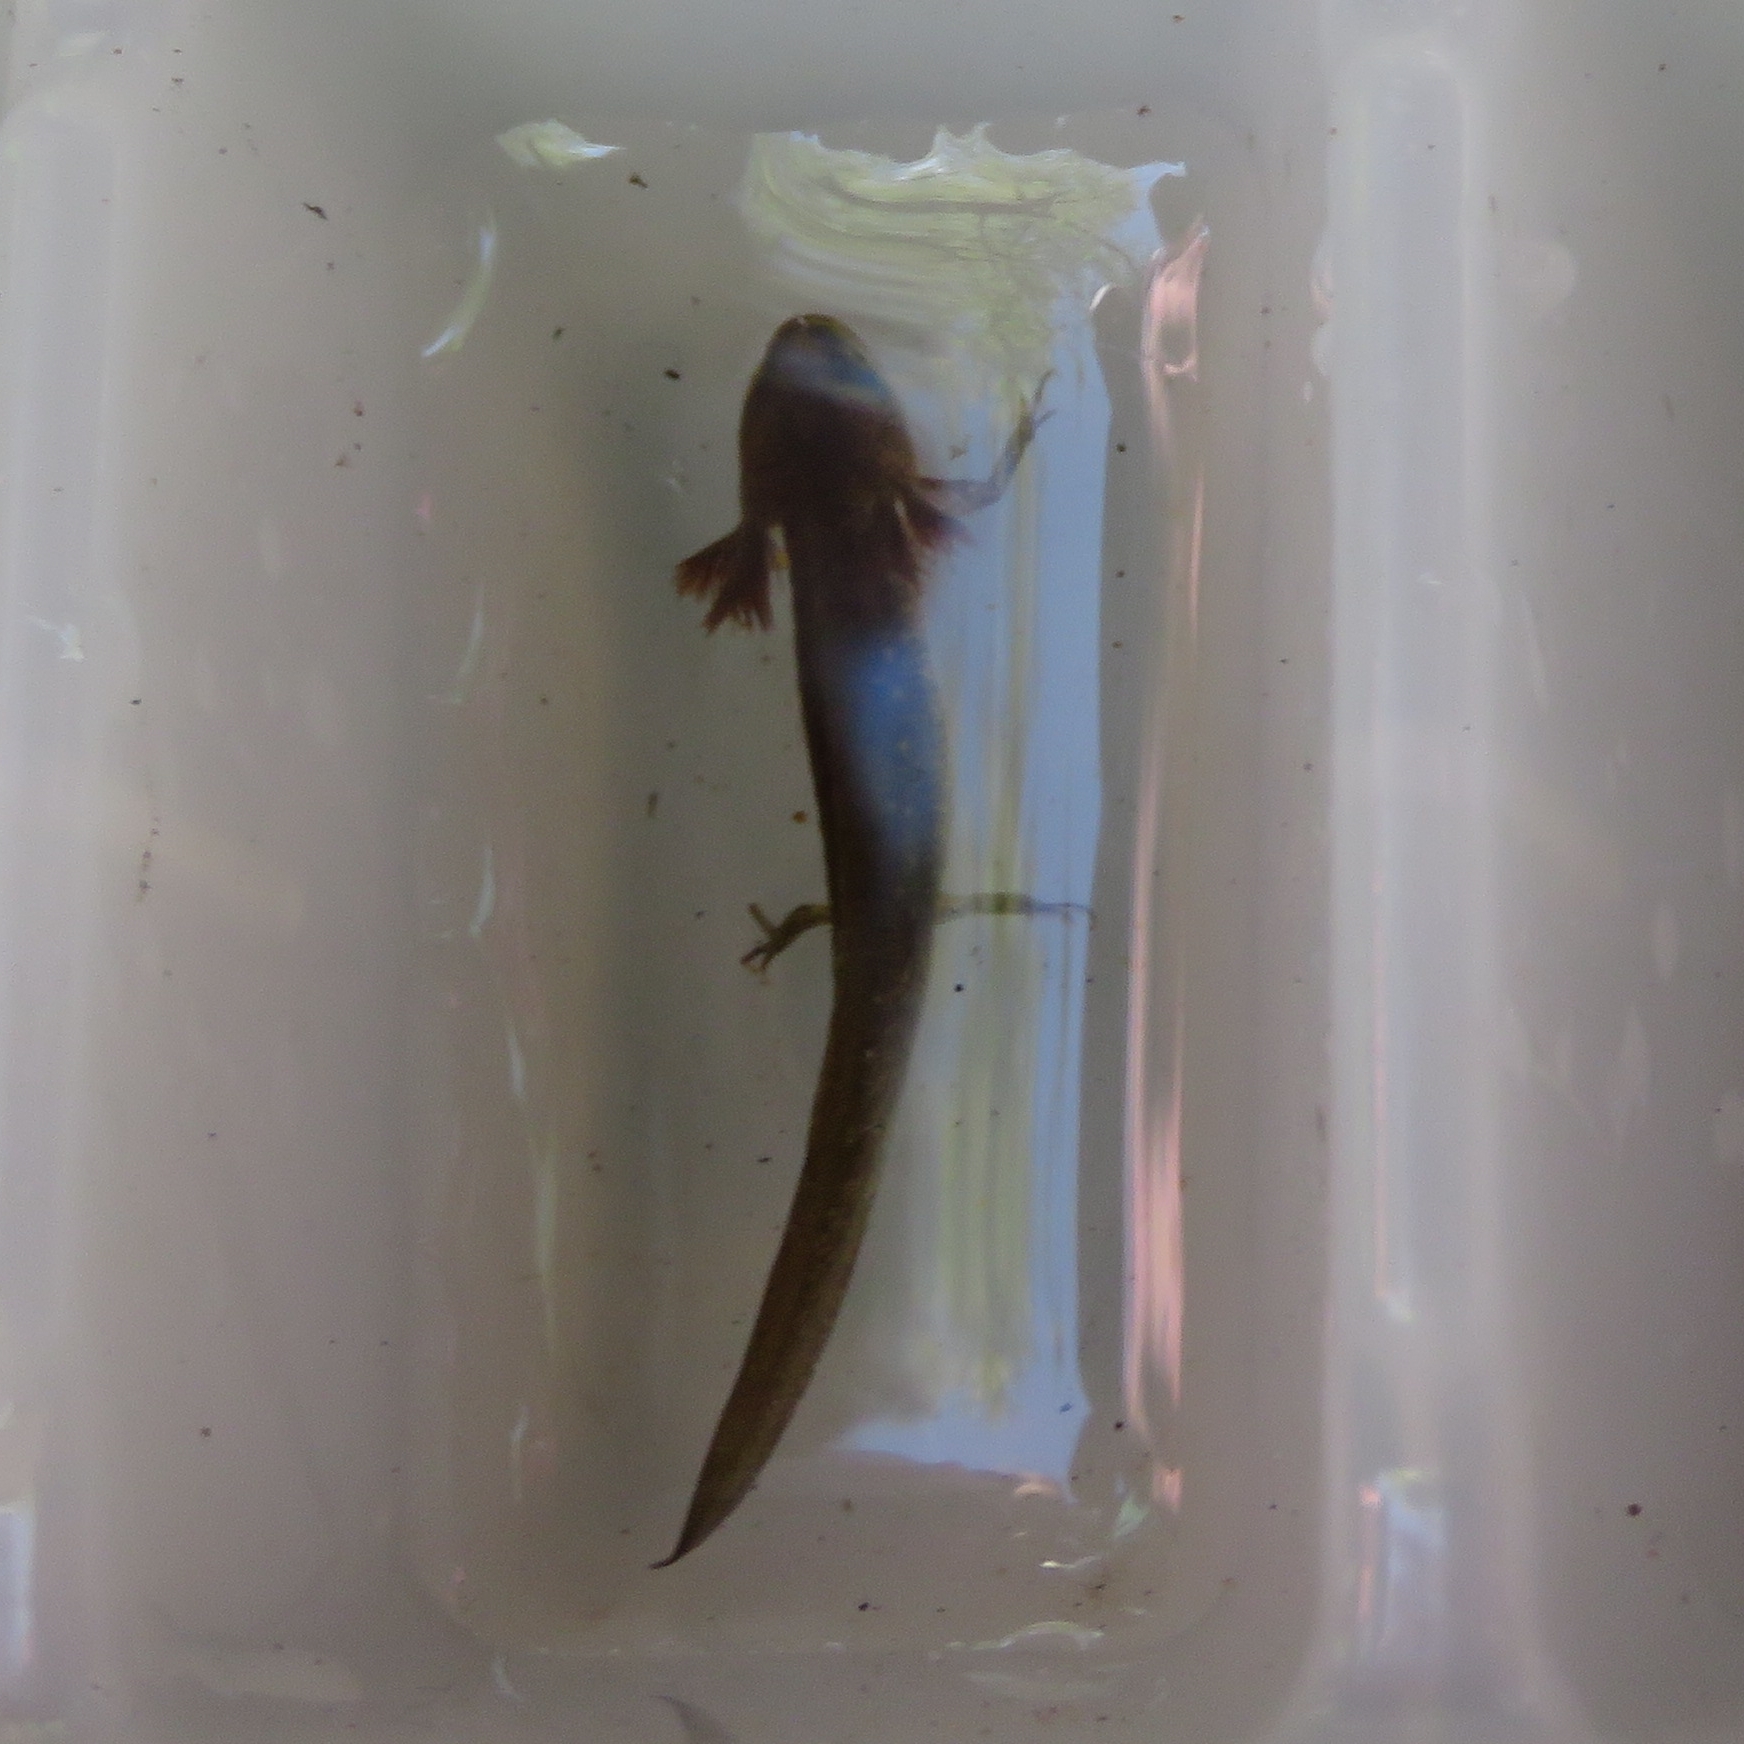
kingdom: Animalia
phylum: Chordata
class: Amphibia
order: Caudata
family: Salamandridae
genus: Lissotriton
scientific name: Lissotriton vulgaris
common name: Smooth newt
